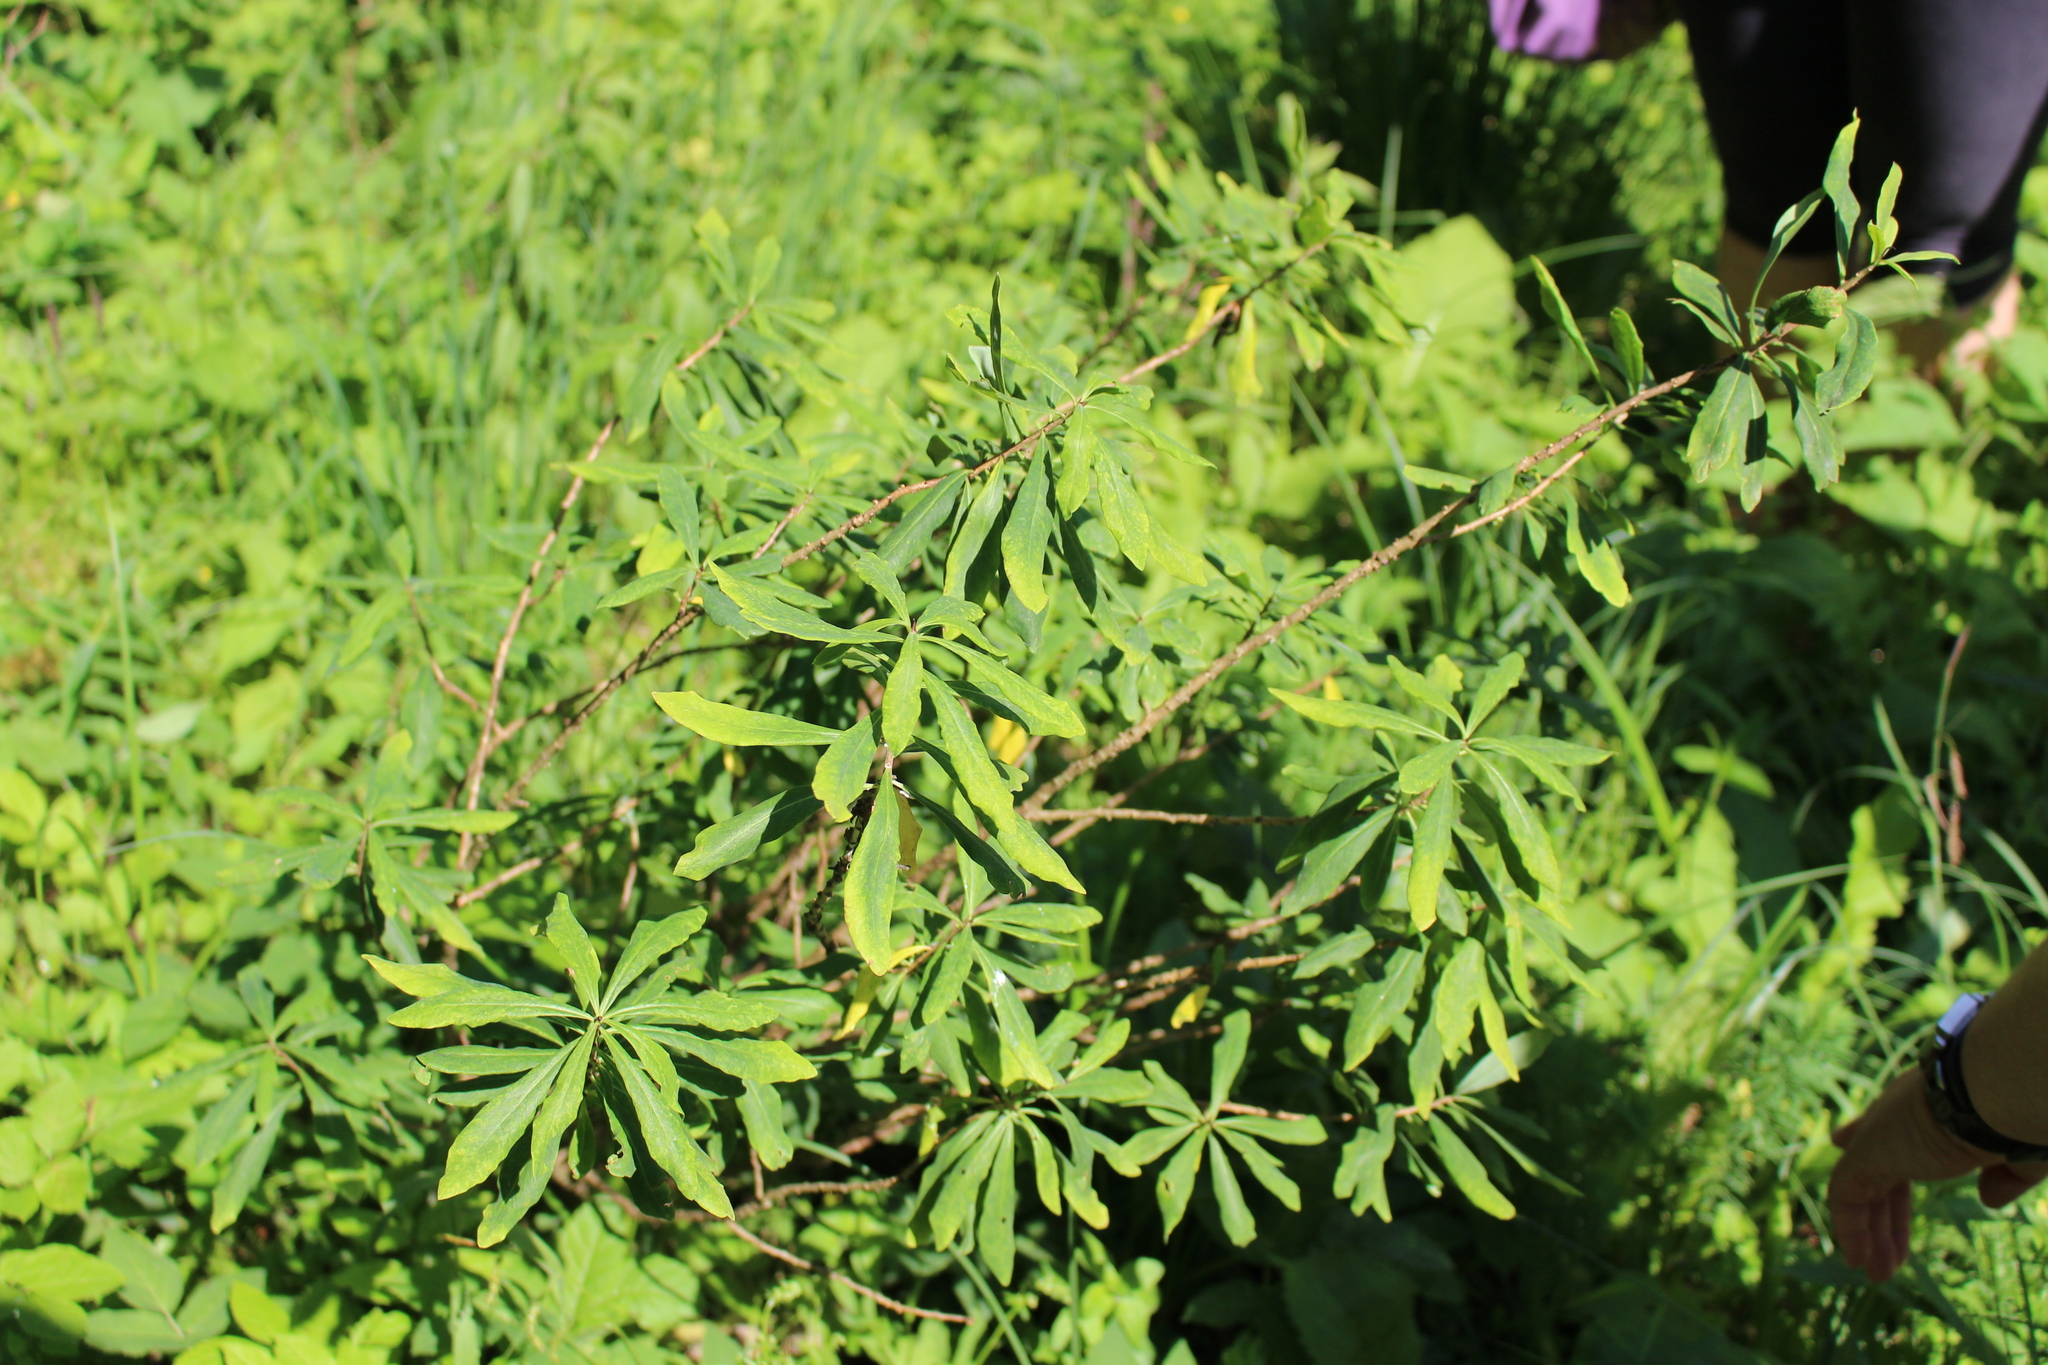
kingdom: Plantae
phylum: Tracheophyta
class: Magnoliopsida
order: Malvales
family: Thymelaeaceae
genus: Daphne
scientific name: Daphne mezereum
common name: Mezereon
